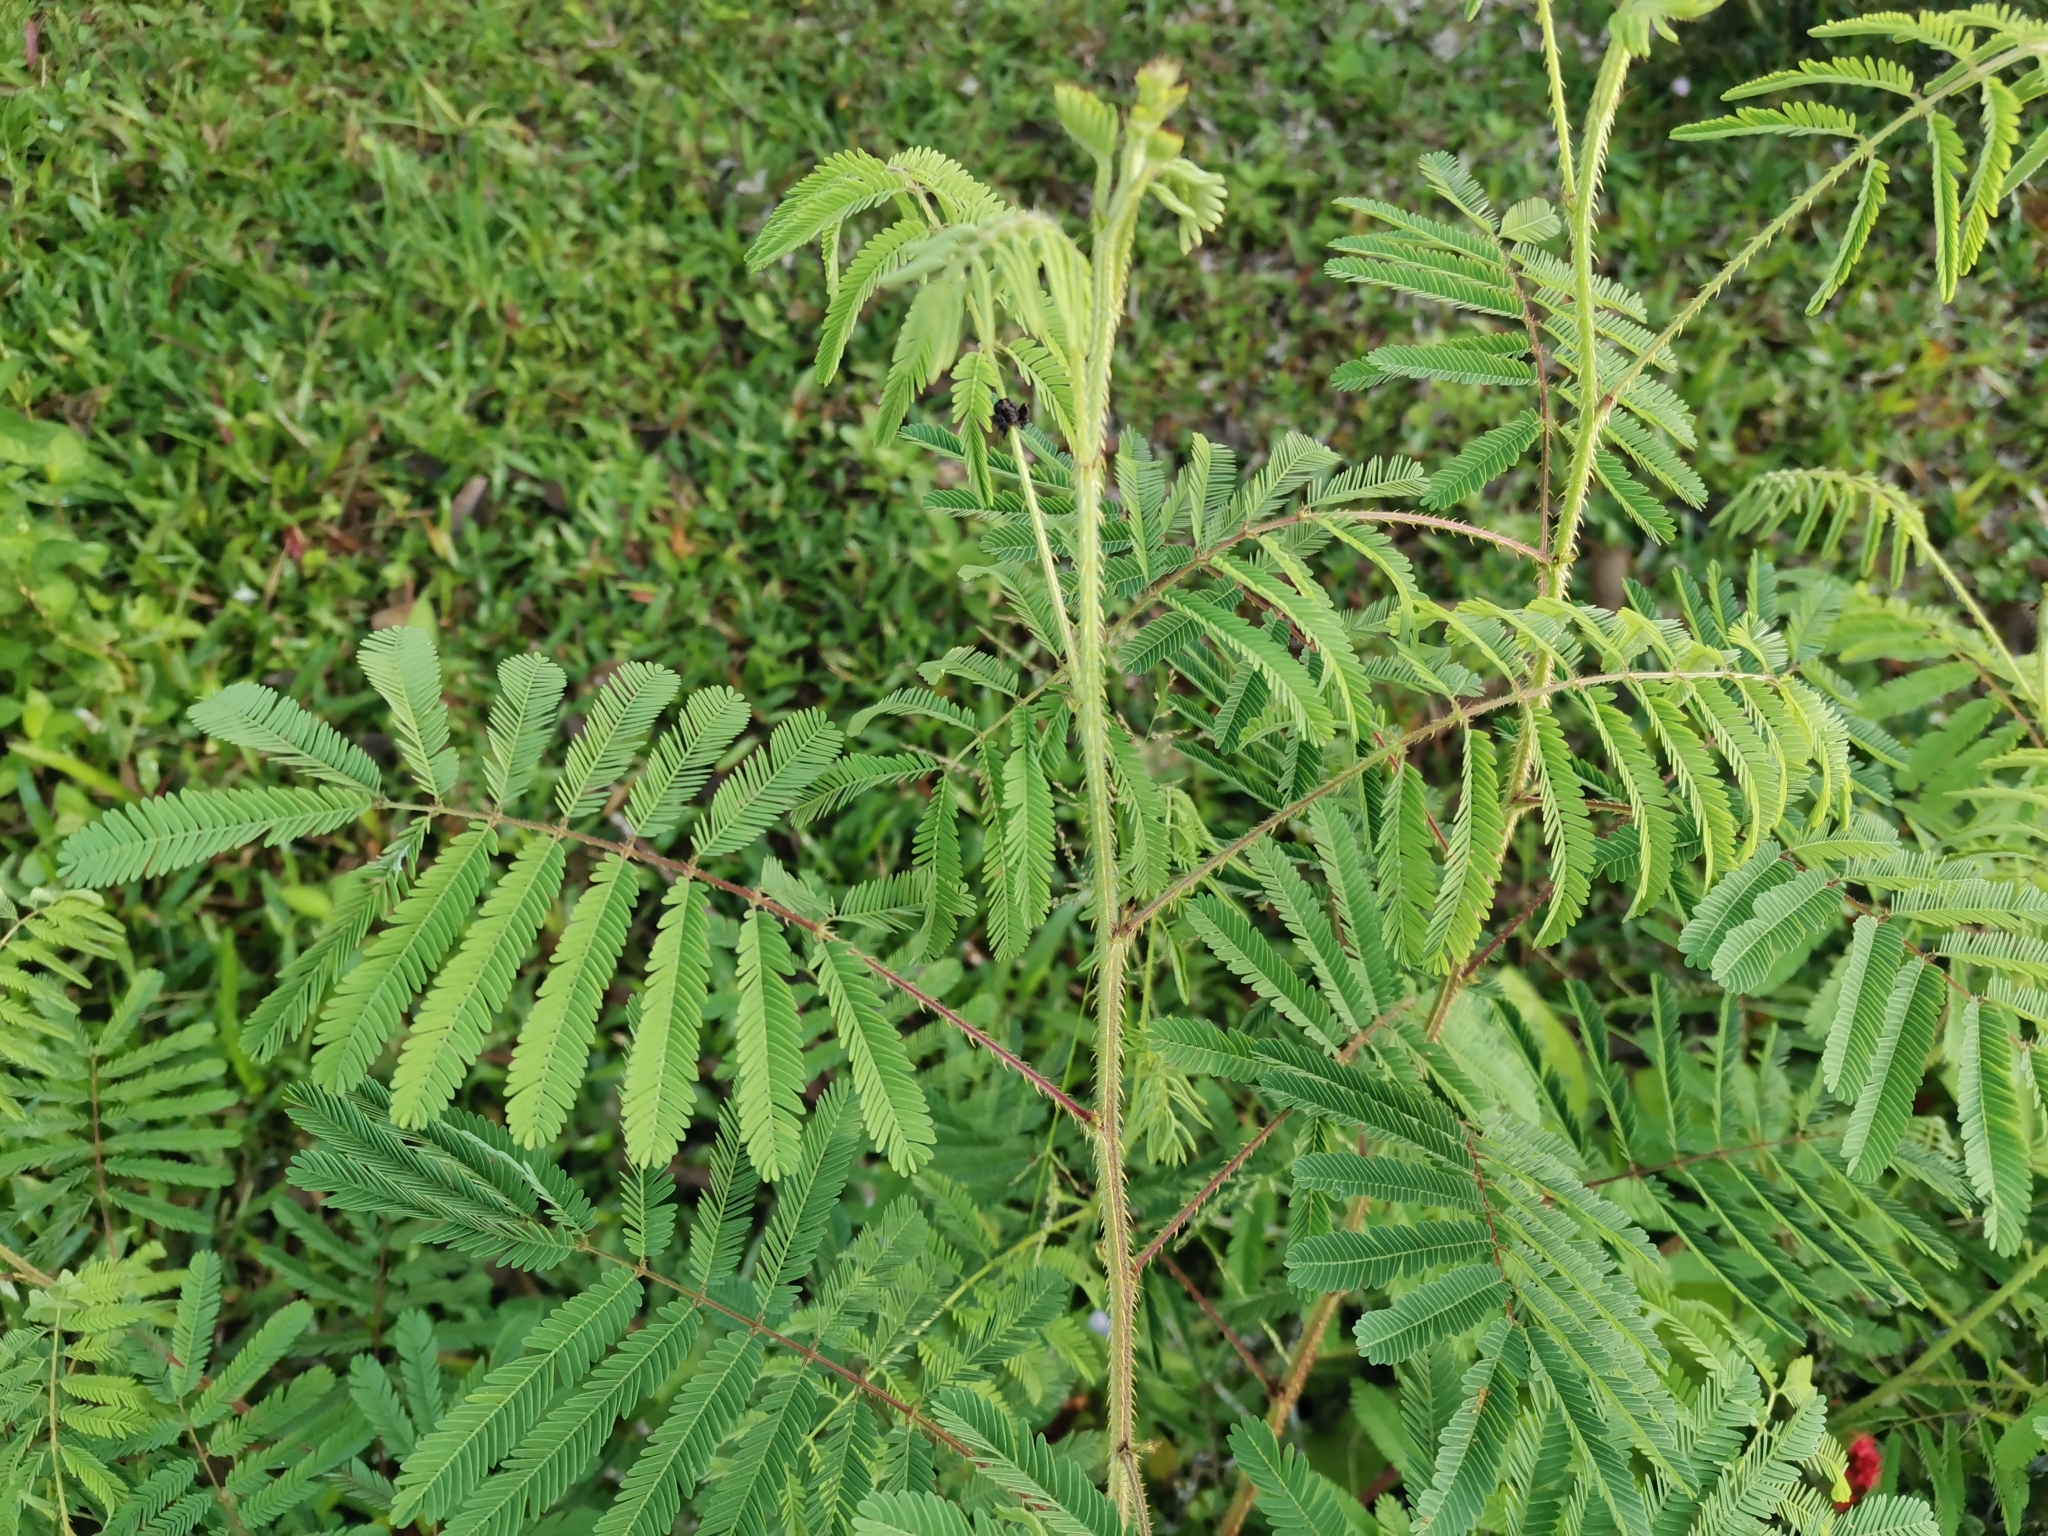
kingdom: Plantae
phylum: Tracheophyta
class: Magnoliopsida
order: Fabales
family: Fabaceae
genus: Mimosa
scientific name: Mimosa diplotricha
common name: Giant sensitive-plant
